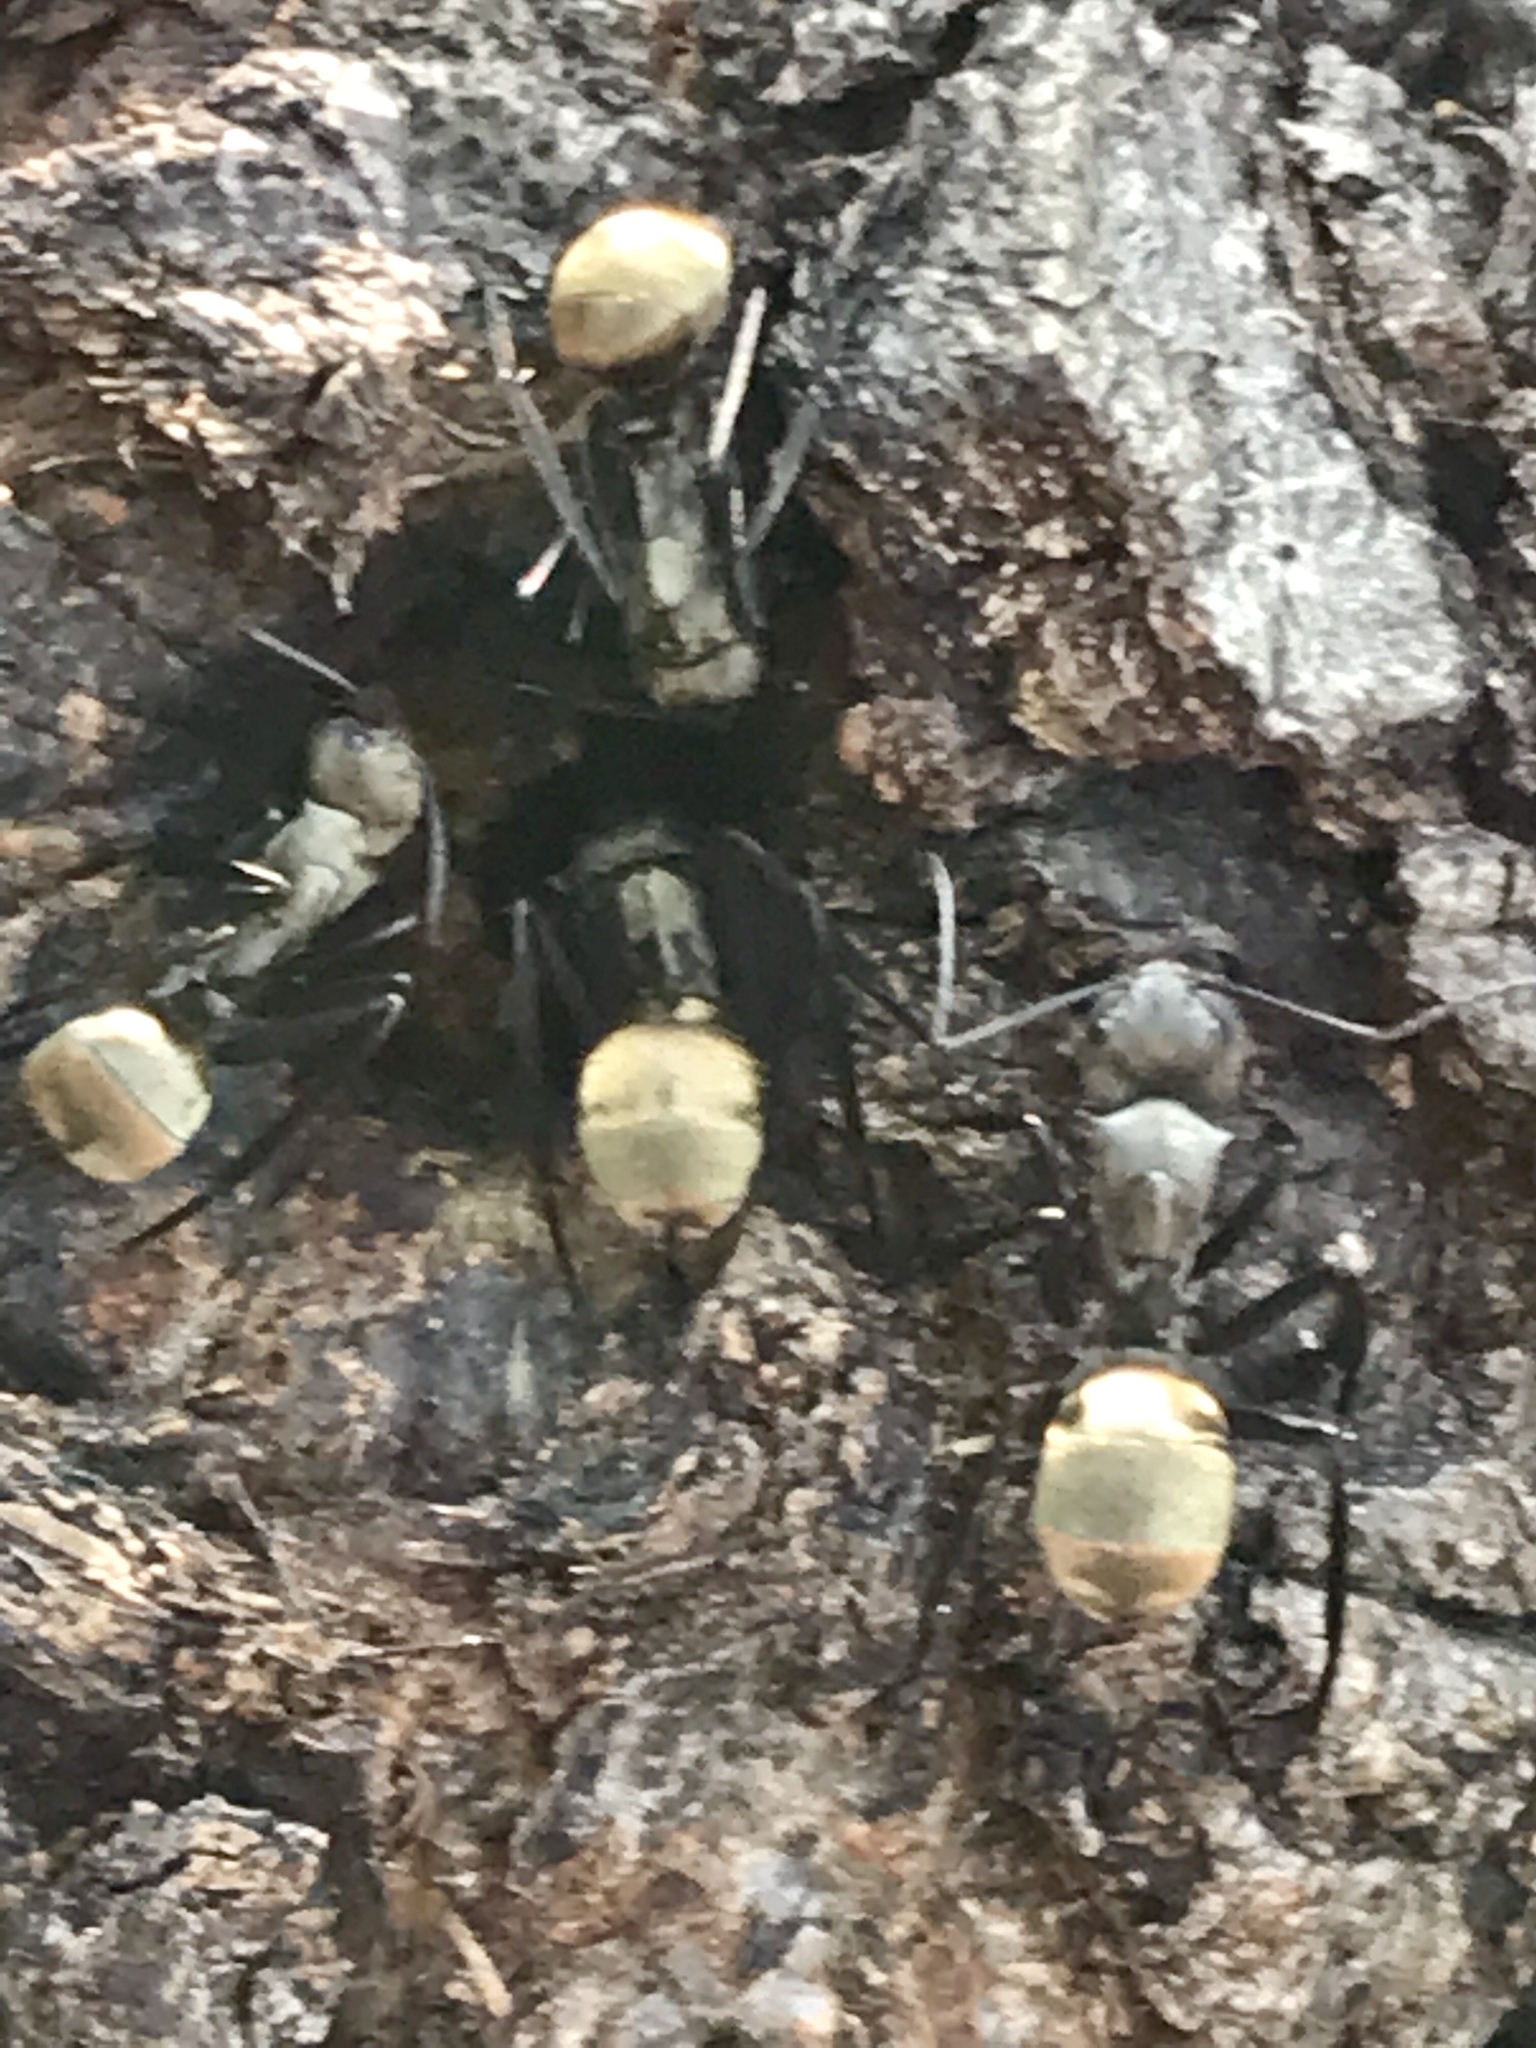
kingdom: Animalia
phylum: Arthropoda
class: Insecta
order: Hymenoptera
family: Formicidae
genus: Camponotus
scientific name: Camponotus sericeiventris
